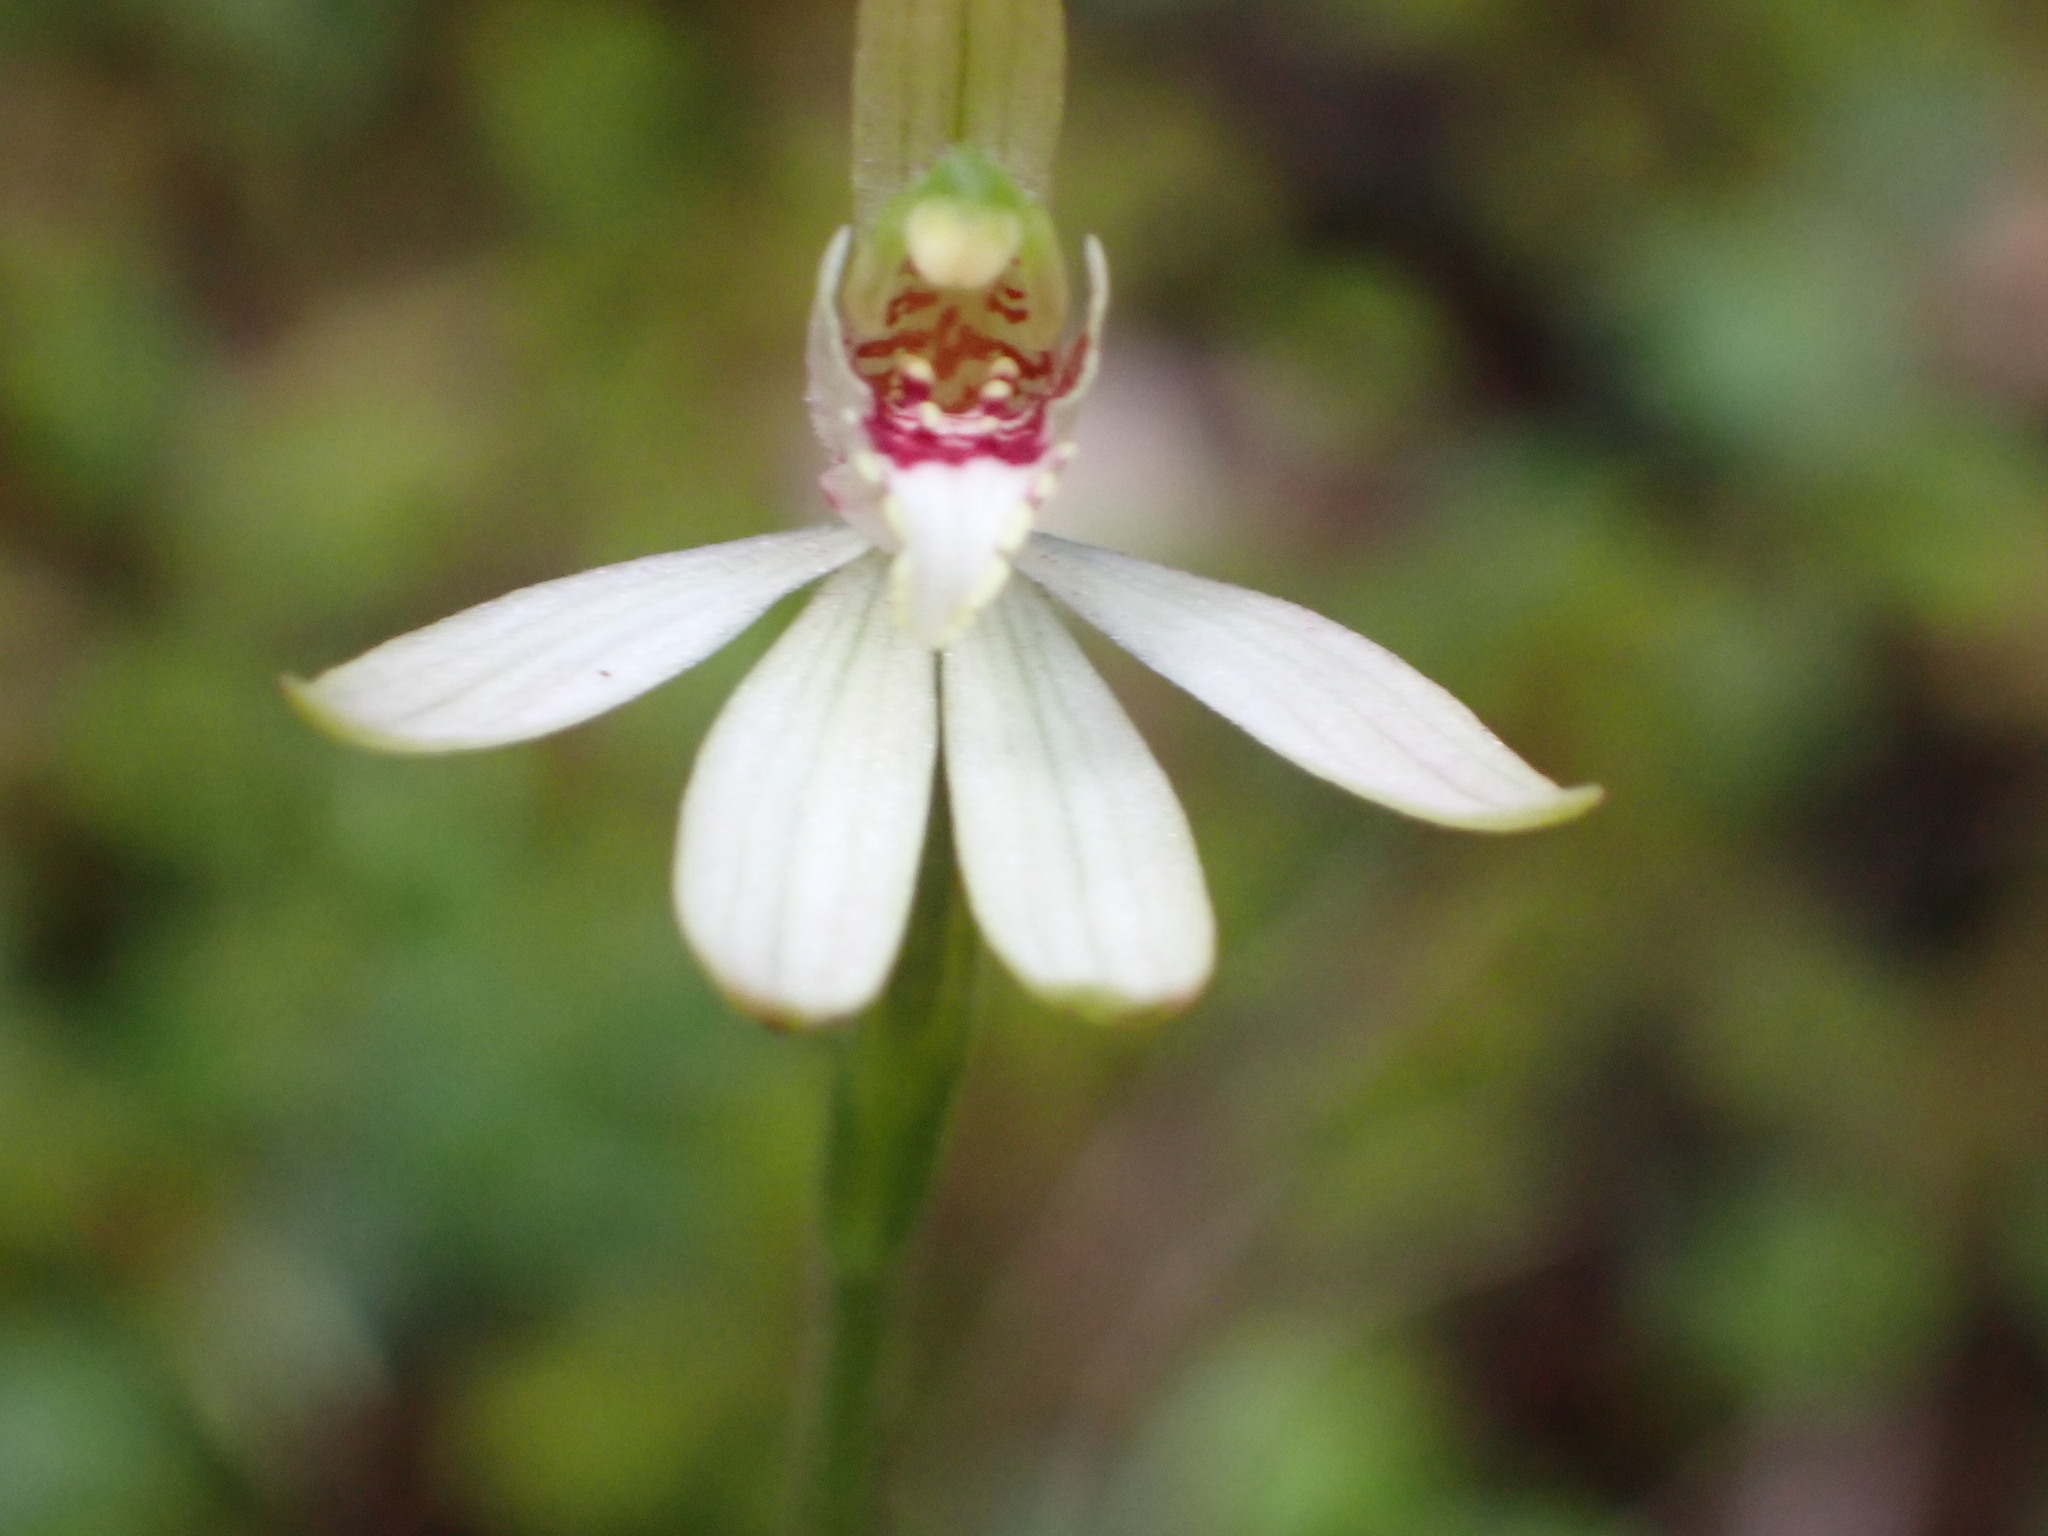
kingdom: Plantae
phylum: Tracheophyta
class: Liliopsida
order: Asparagales
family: Orchidaceae
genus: Caladenia
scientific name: Caladenia chlorostyla
